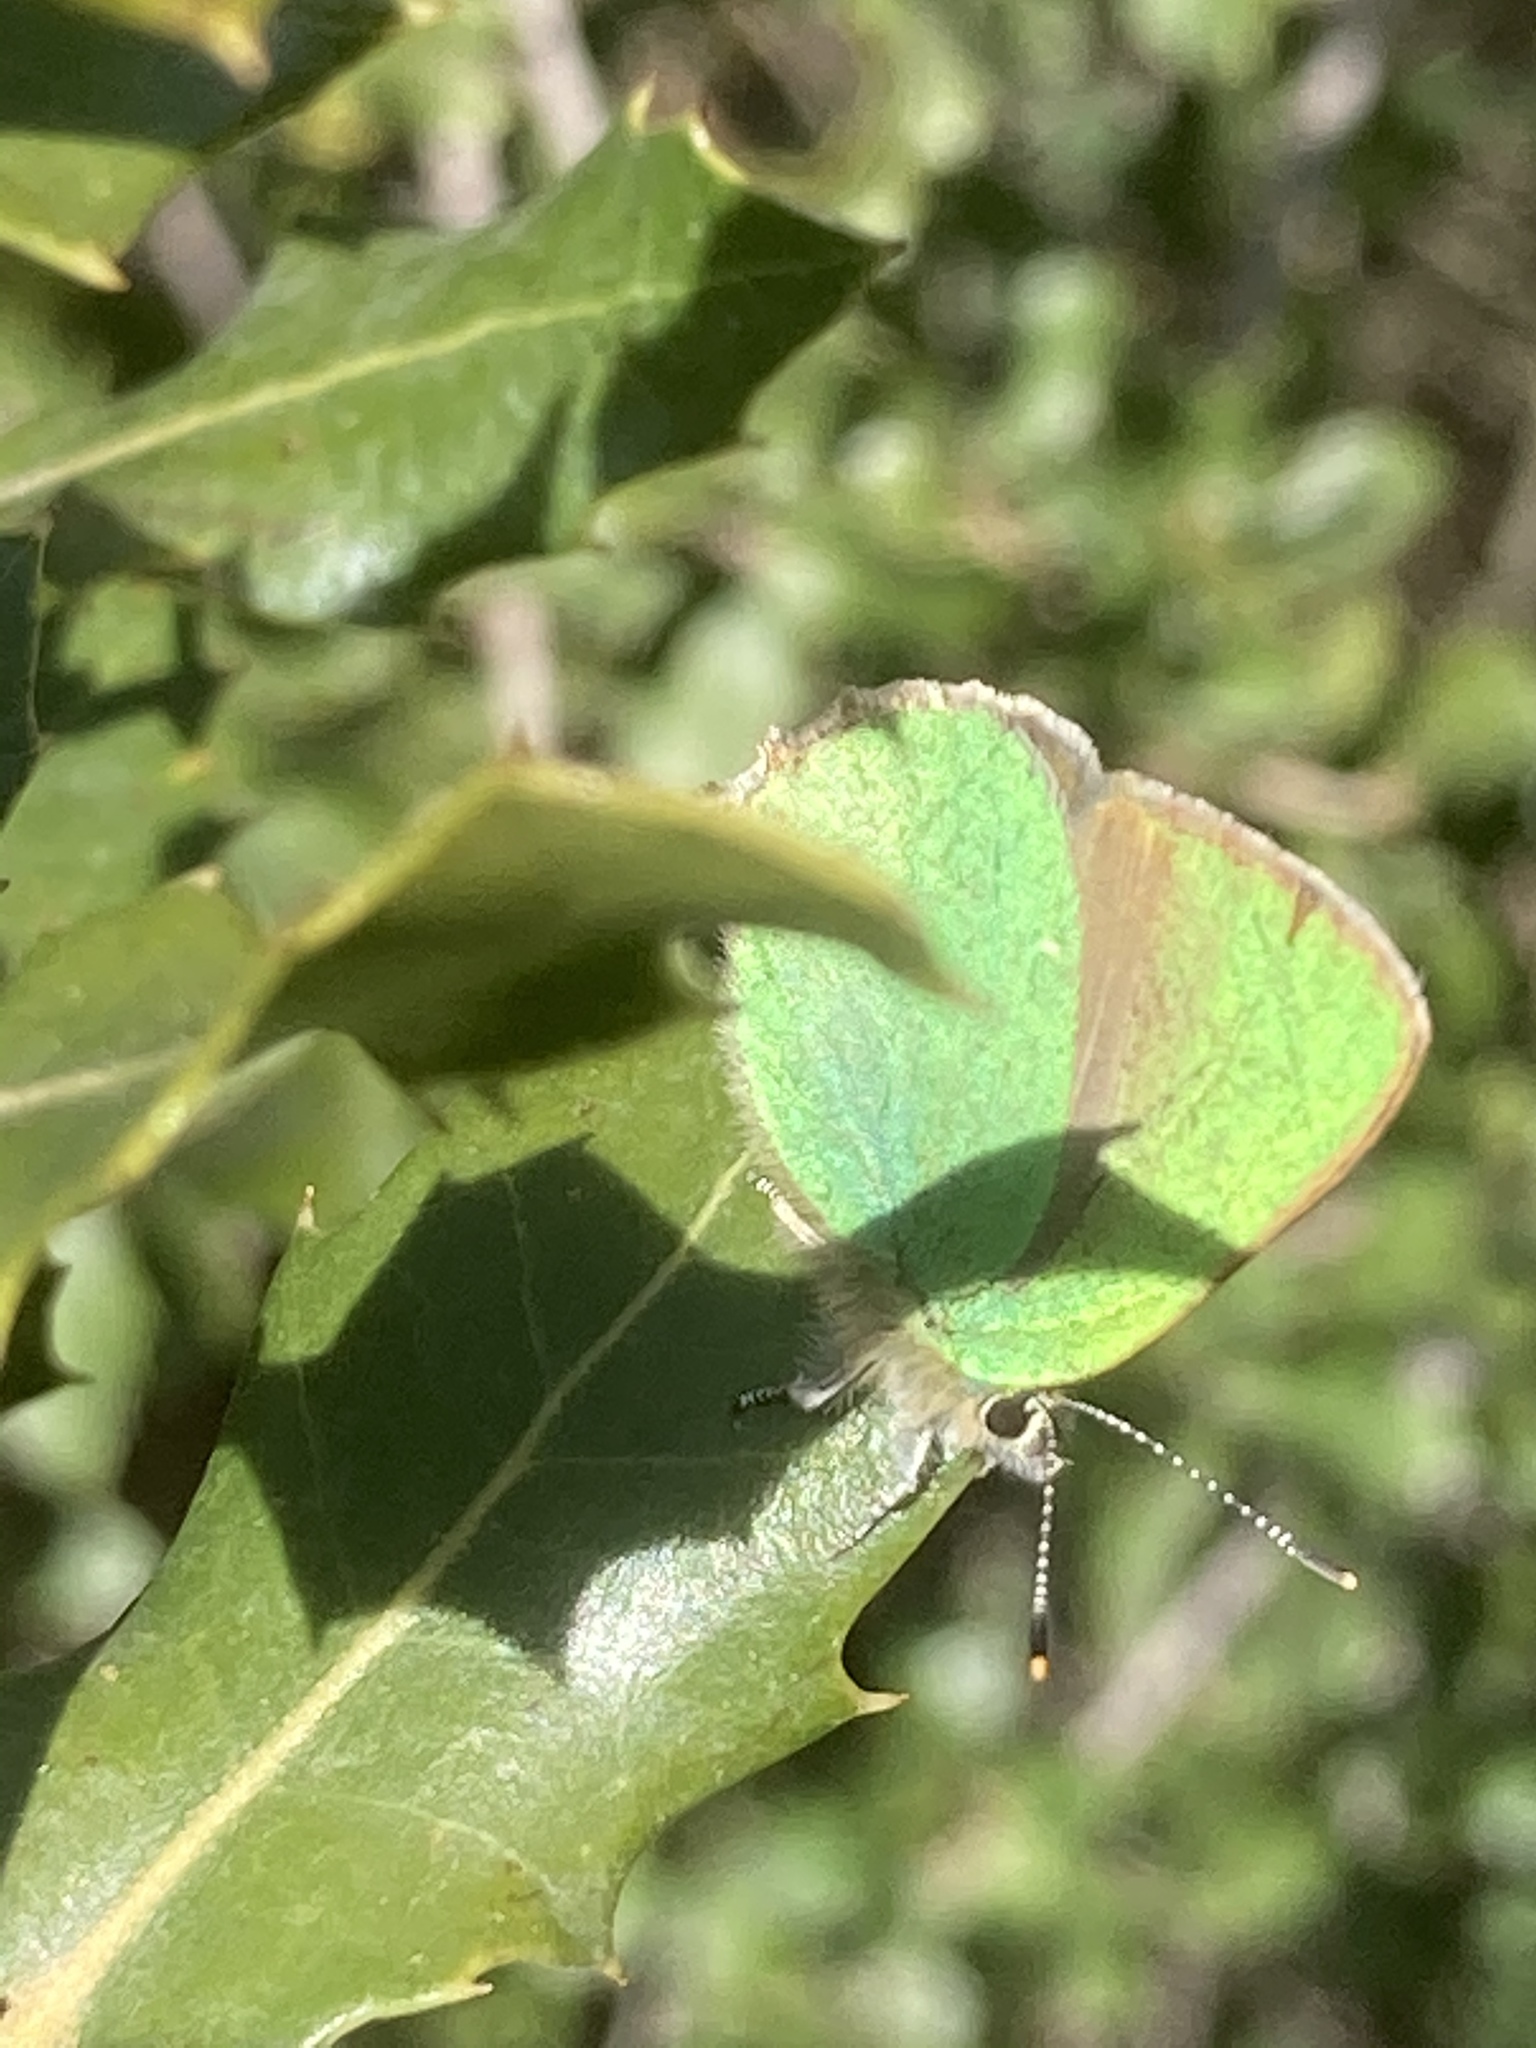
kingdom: Animalia
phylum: Arthropoda
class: Insecta
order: Lepidoptera
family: Lycaenidae
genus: Callophrys
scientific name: Callophrys rubi
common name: Green hairstreak
